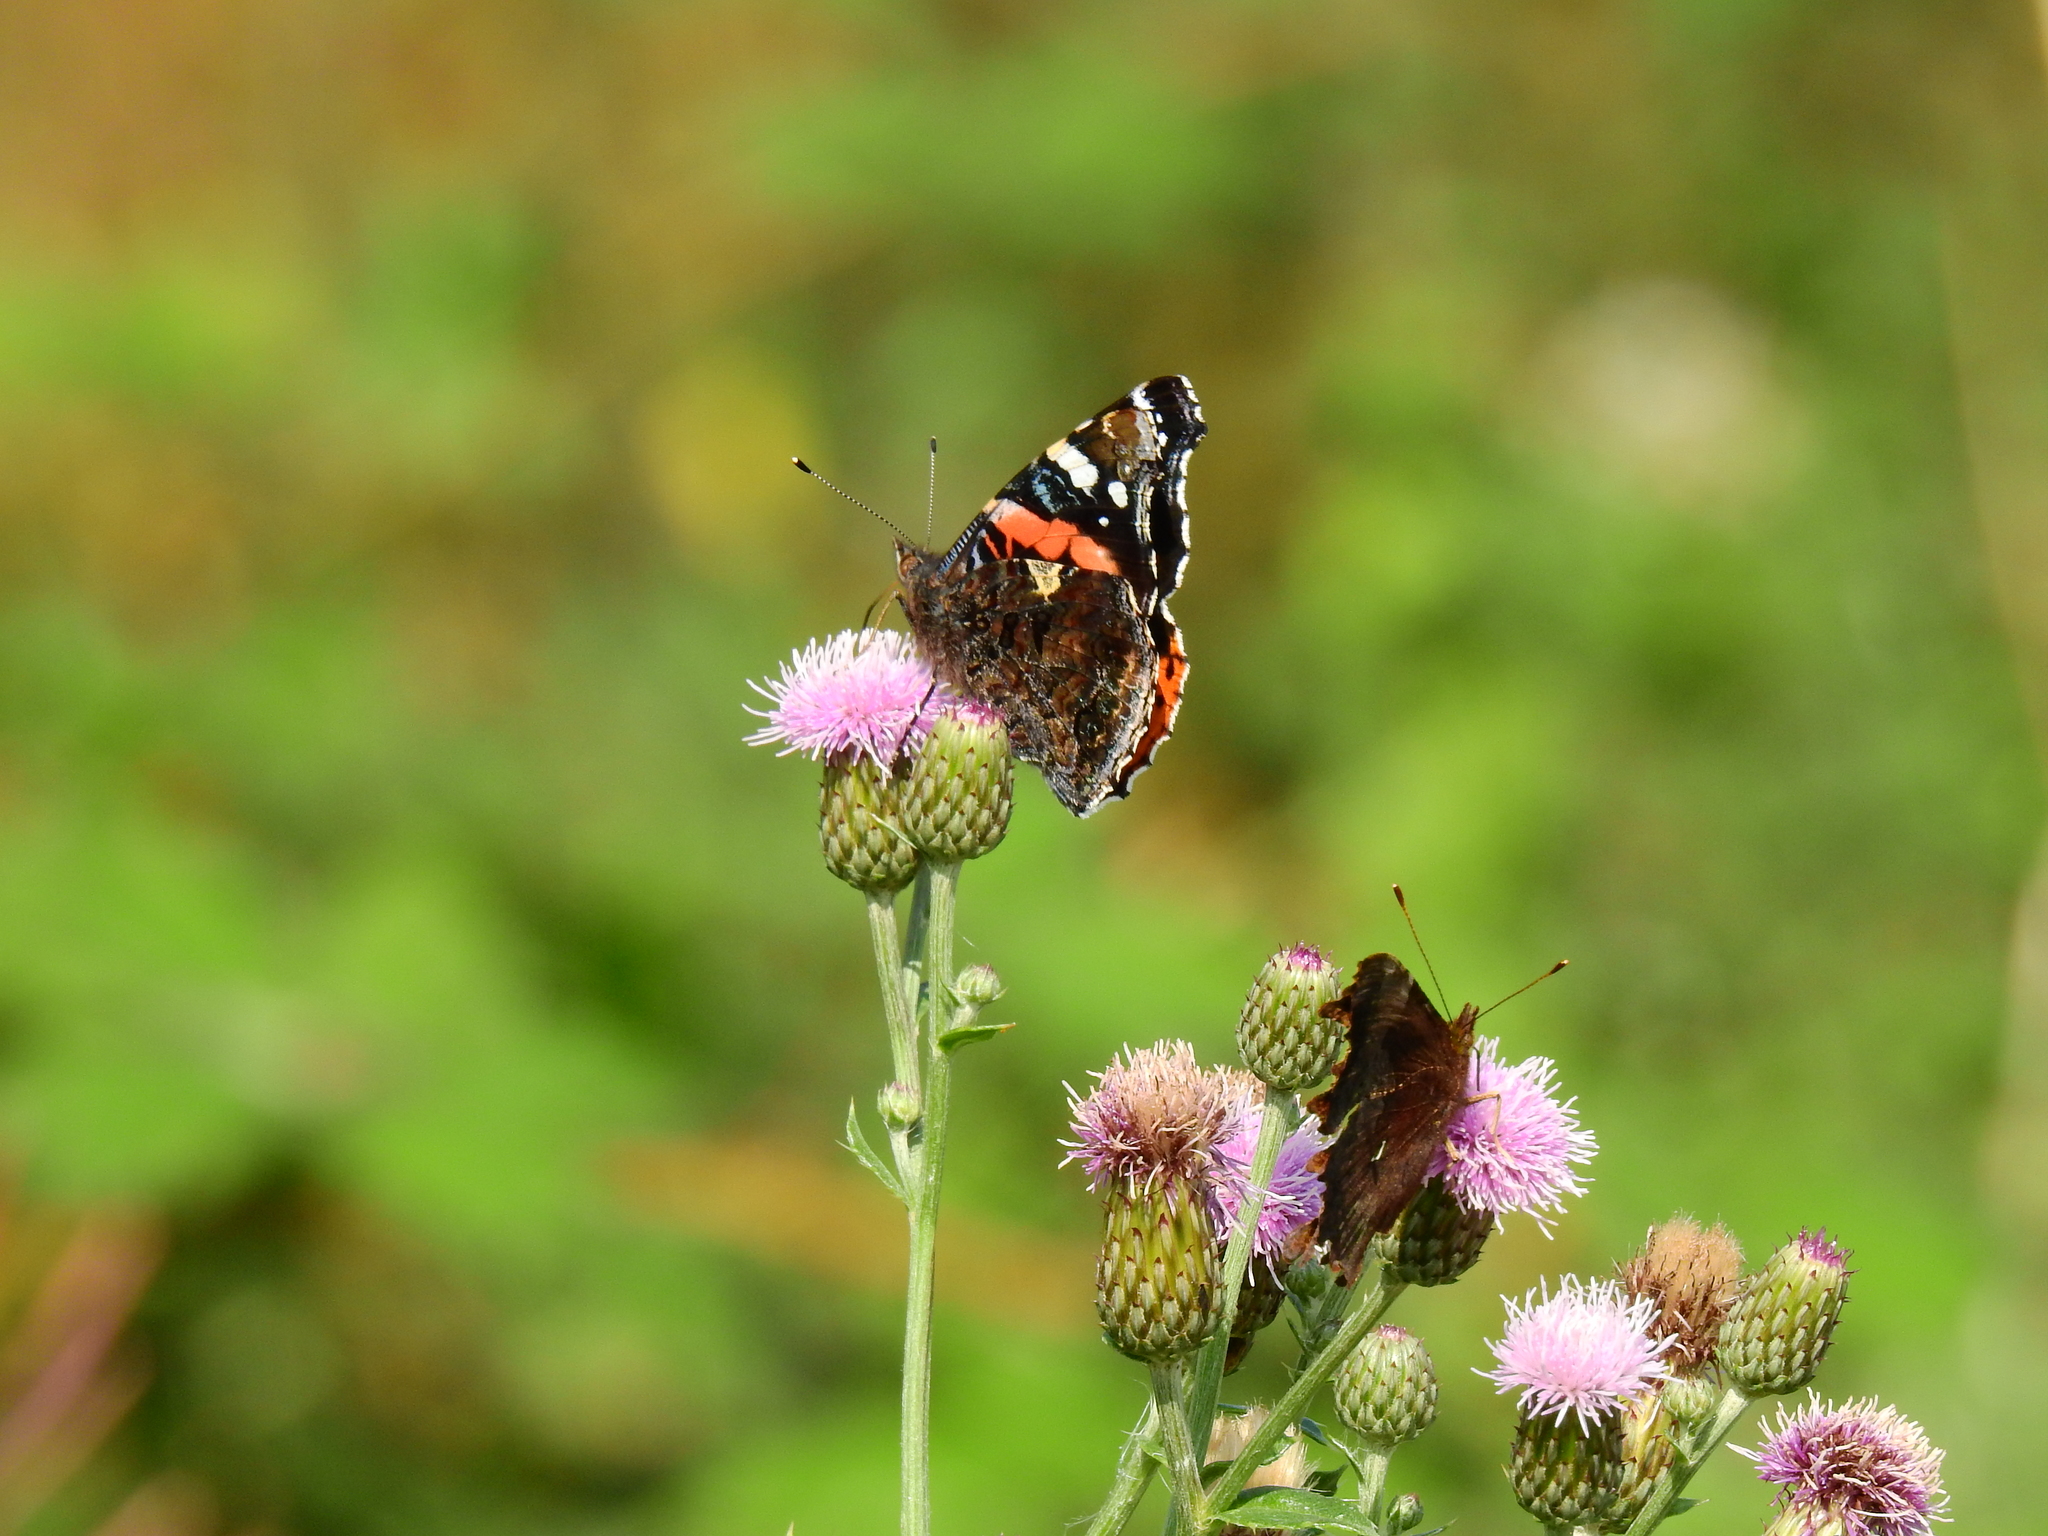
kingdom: Animalia
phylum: Arthropoda
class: Insecta
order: Lepidoptera
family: Nymphalidae
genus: Vanessa
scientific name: Vanessa atalanta
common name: Red admiral
